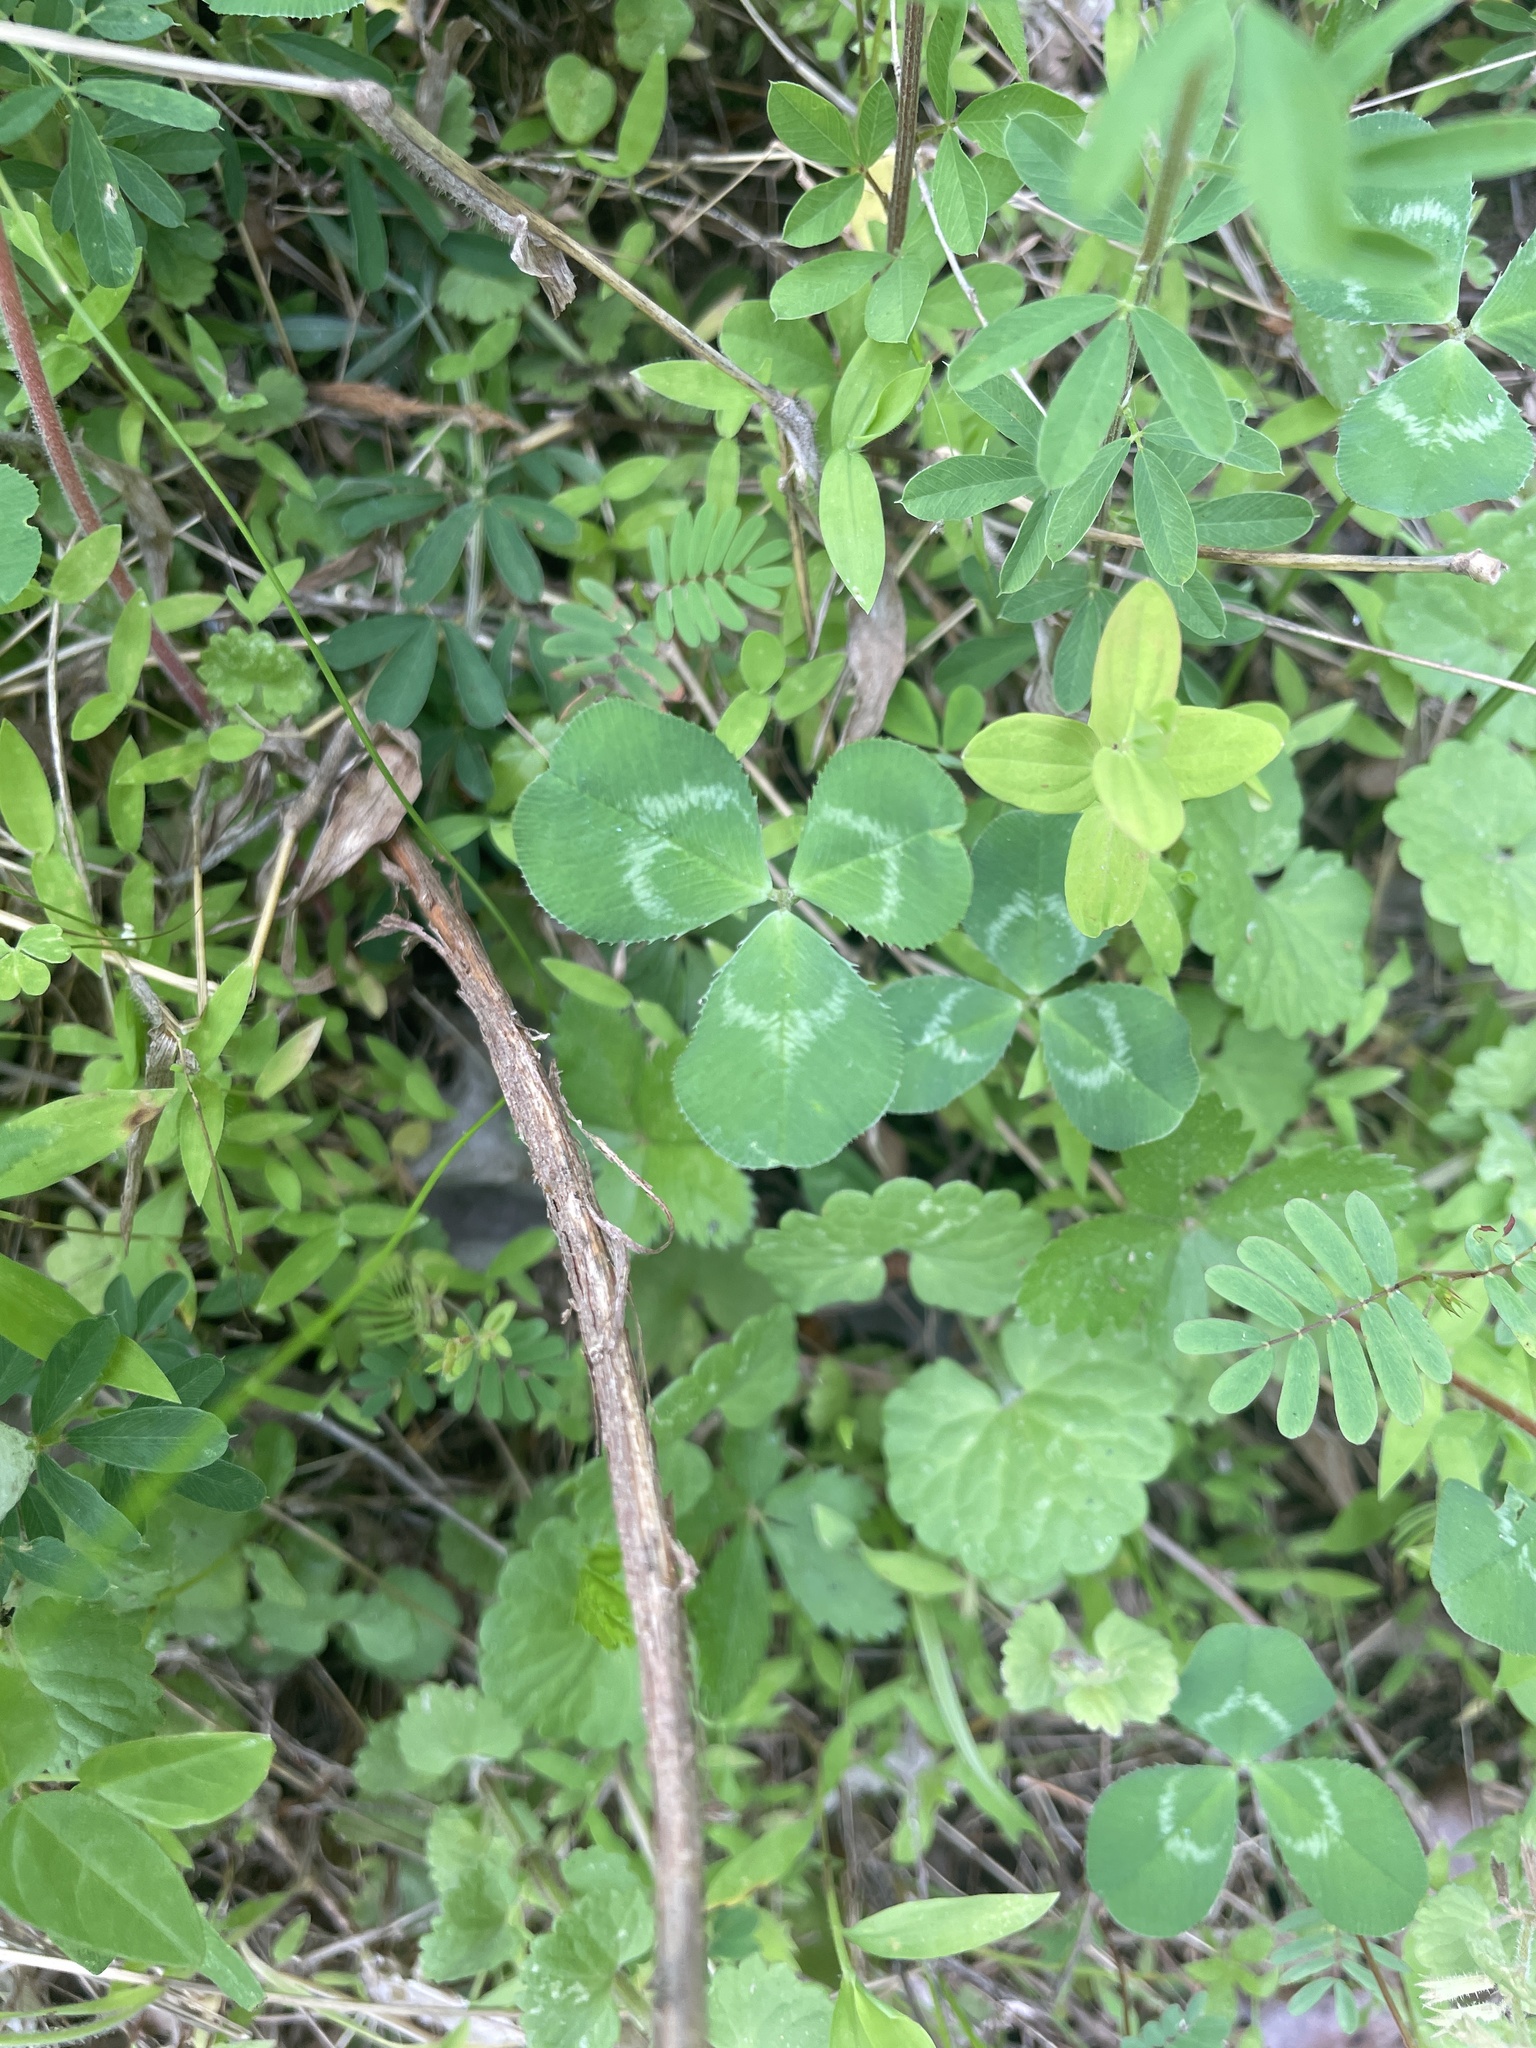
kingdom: Plantae
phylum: Tracheophyta
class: Magnoliopsida
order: Fabales
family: Fabaceae
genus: Trifolium
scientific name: Trifolium repens
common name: White clover
